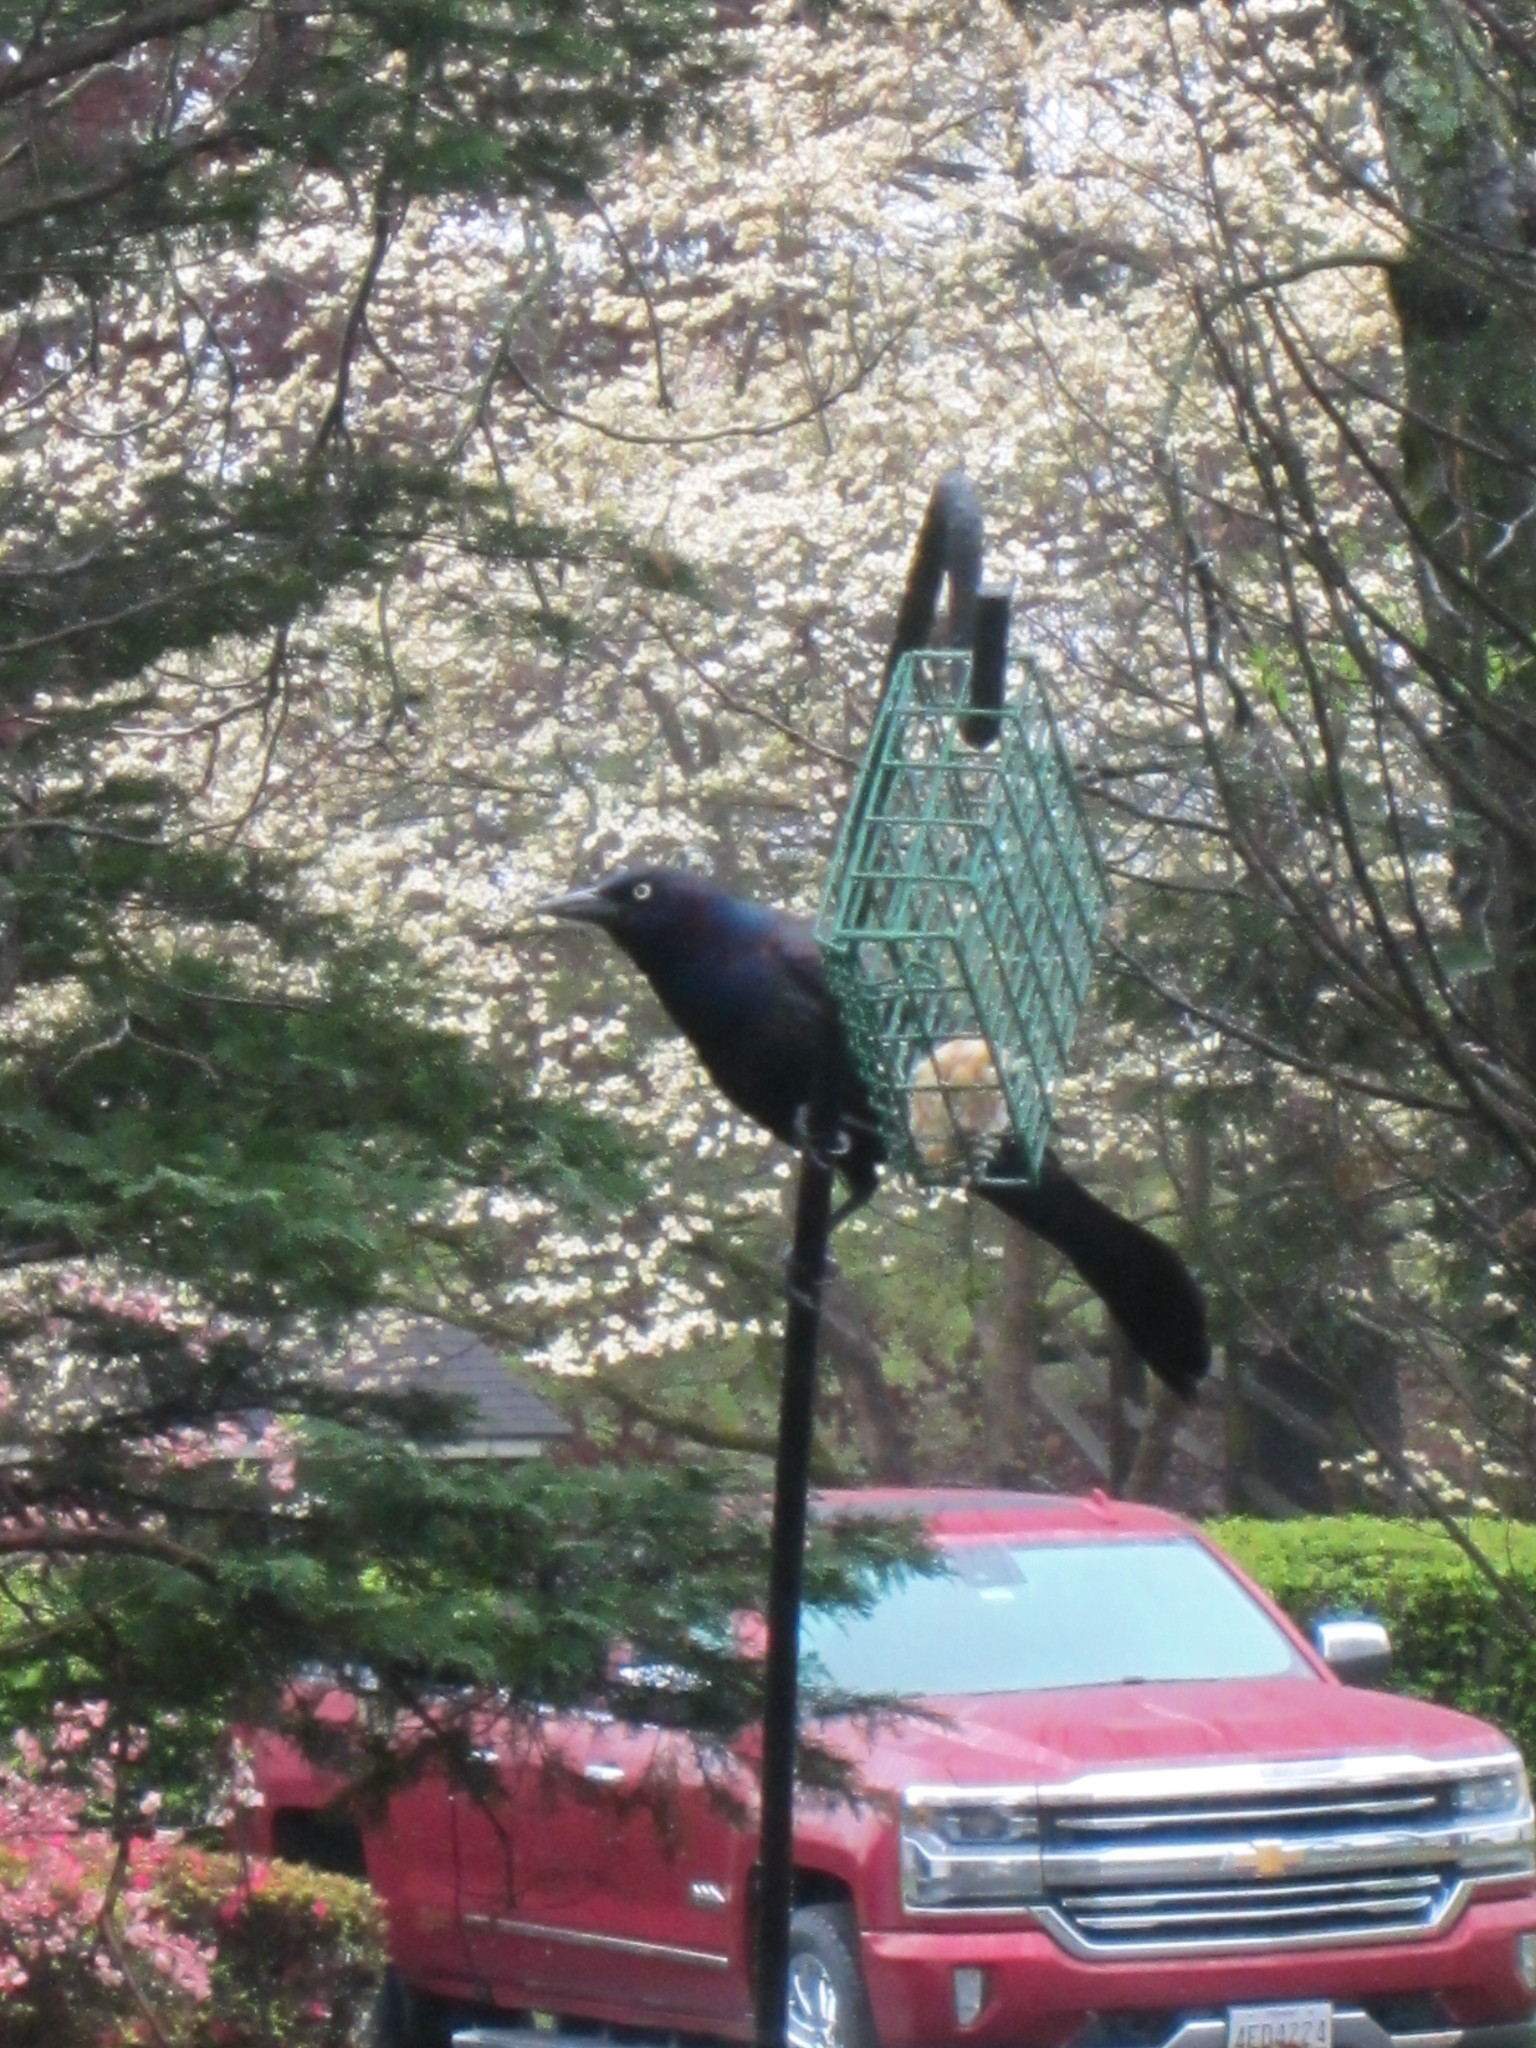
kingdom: Animalia
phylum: Chordata
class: Aves
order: Passeriformes
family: Icteridae
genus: Quiscalus
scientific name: Quiscalus quiscula
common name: Common grackle
